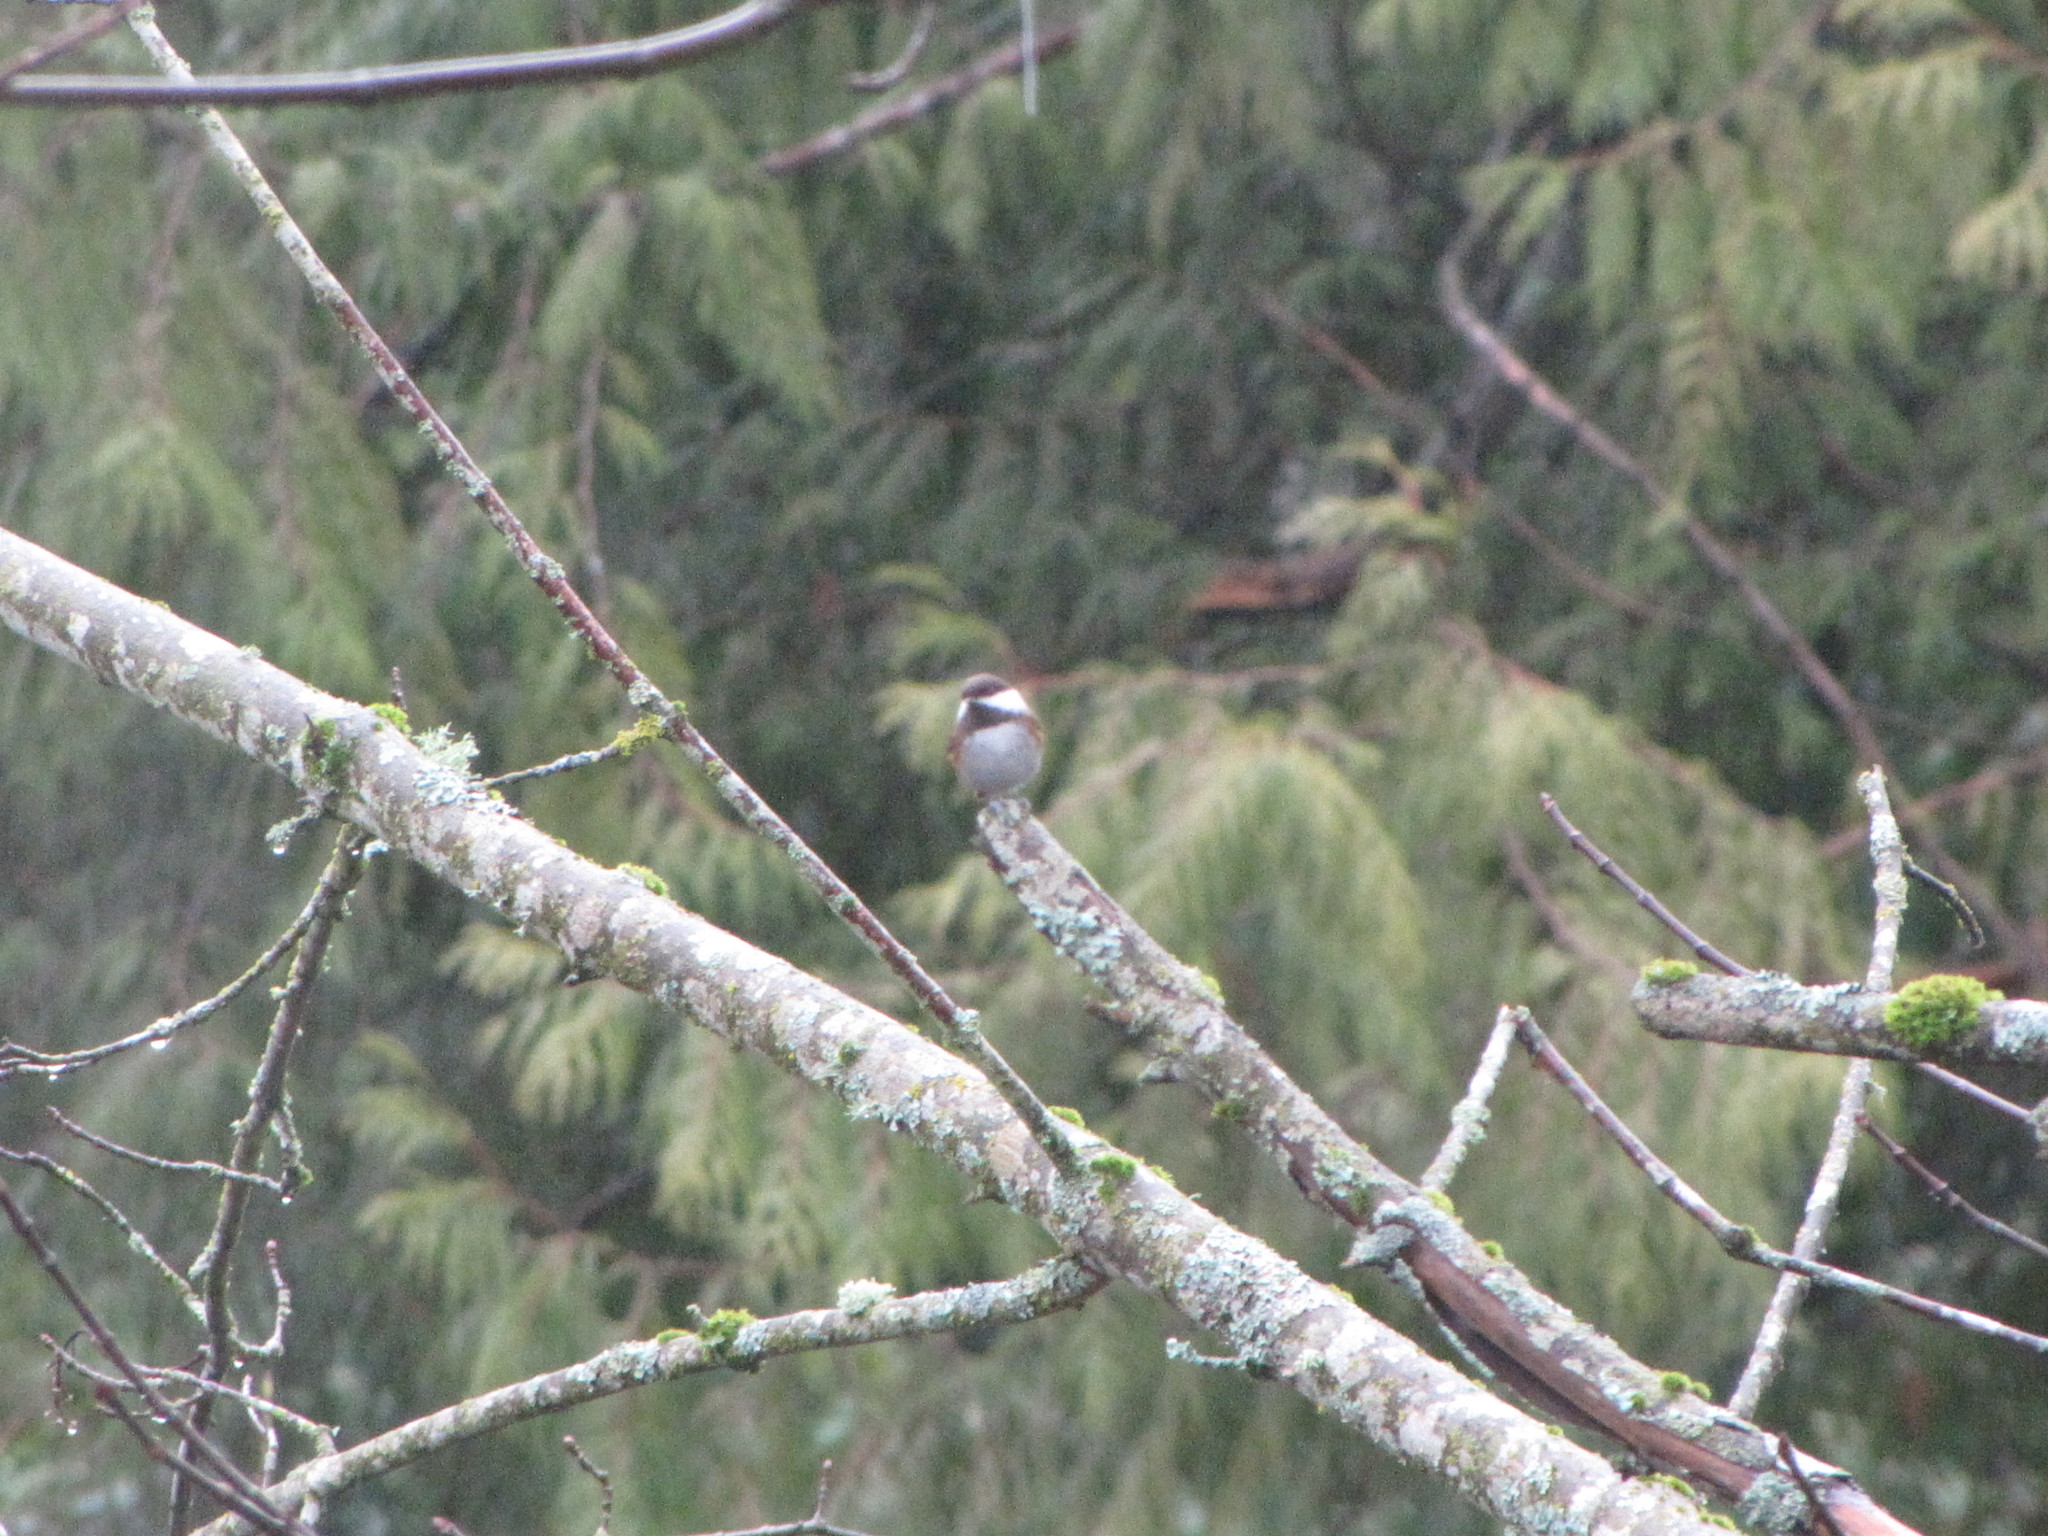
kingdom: Animalia
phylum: Chordata
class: Aves
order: Passeriformes
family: Paridae
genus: Poecile
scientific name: Poecile rufescens
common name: Chestnut-backed chickadee
